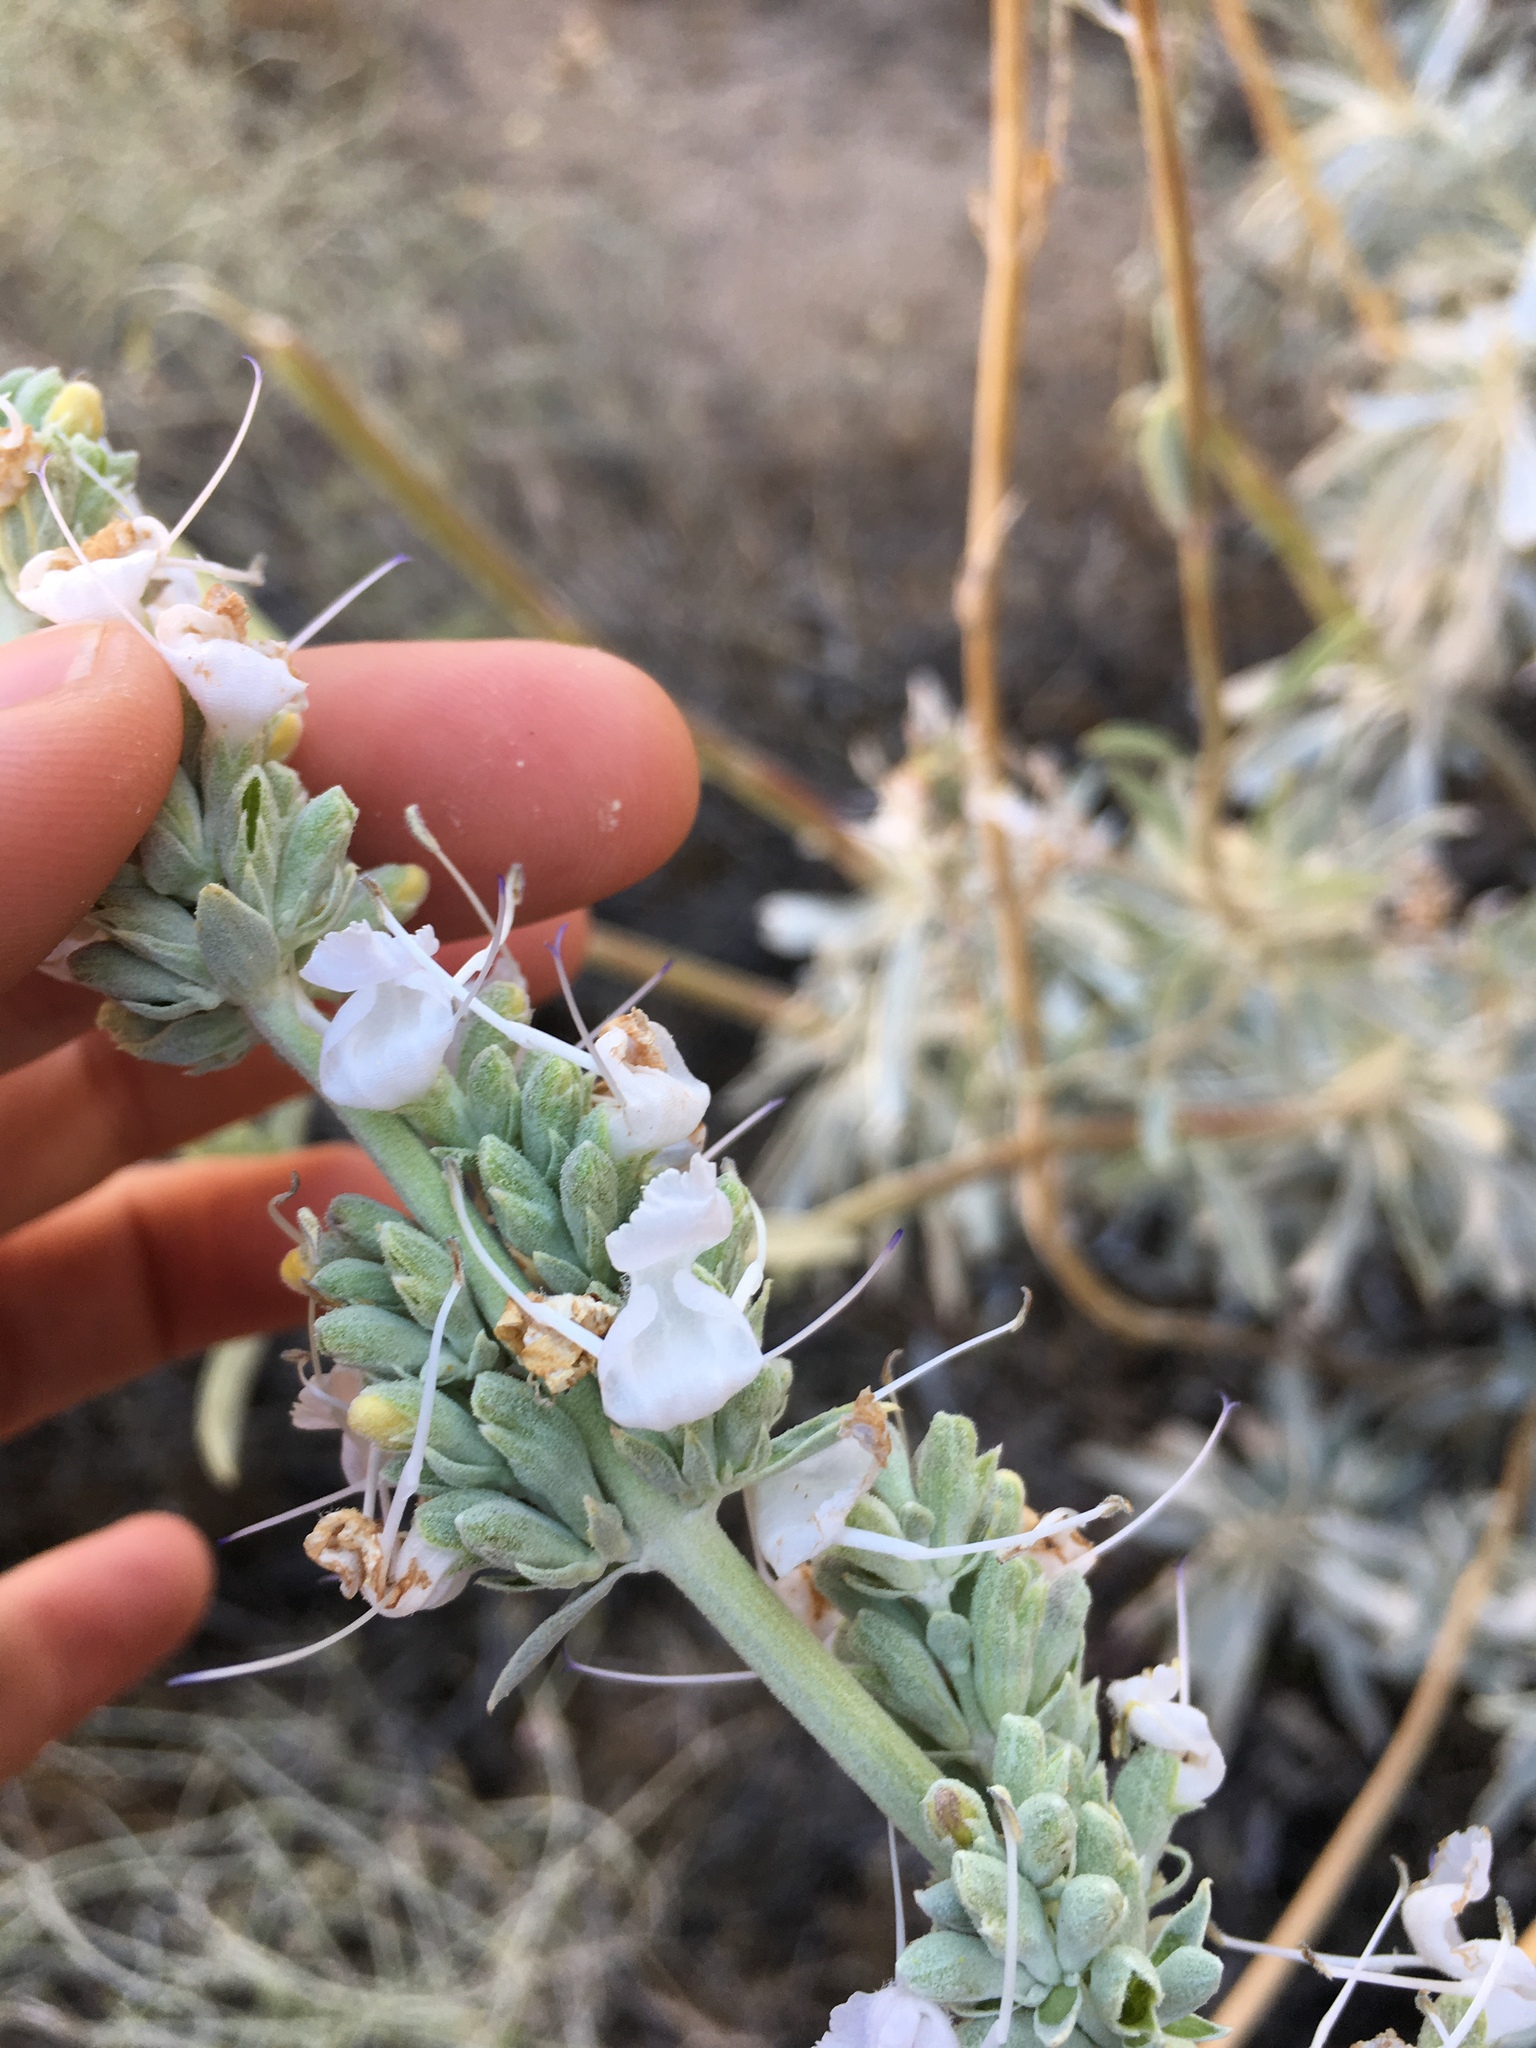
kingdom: Plantae
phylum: Tracheophyta
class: Magnoliopsida
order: Lamiales
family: Lamiaceae
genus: Salvia
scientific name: Salvia apiana
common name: White sage
